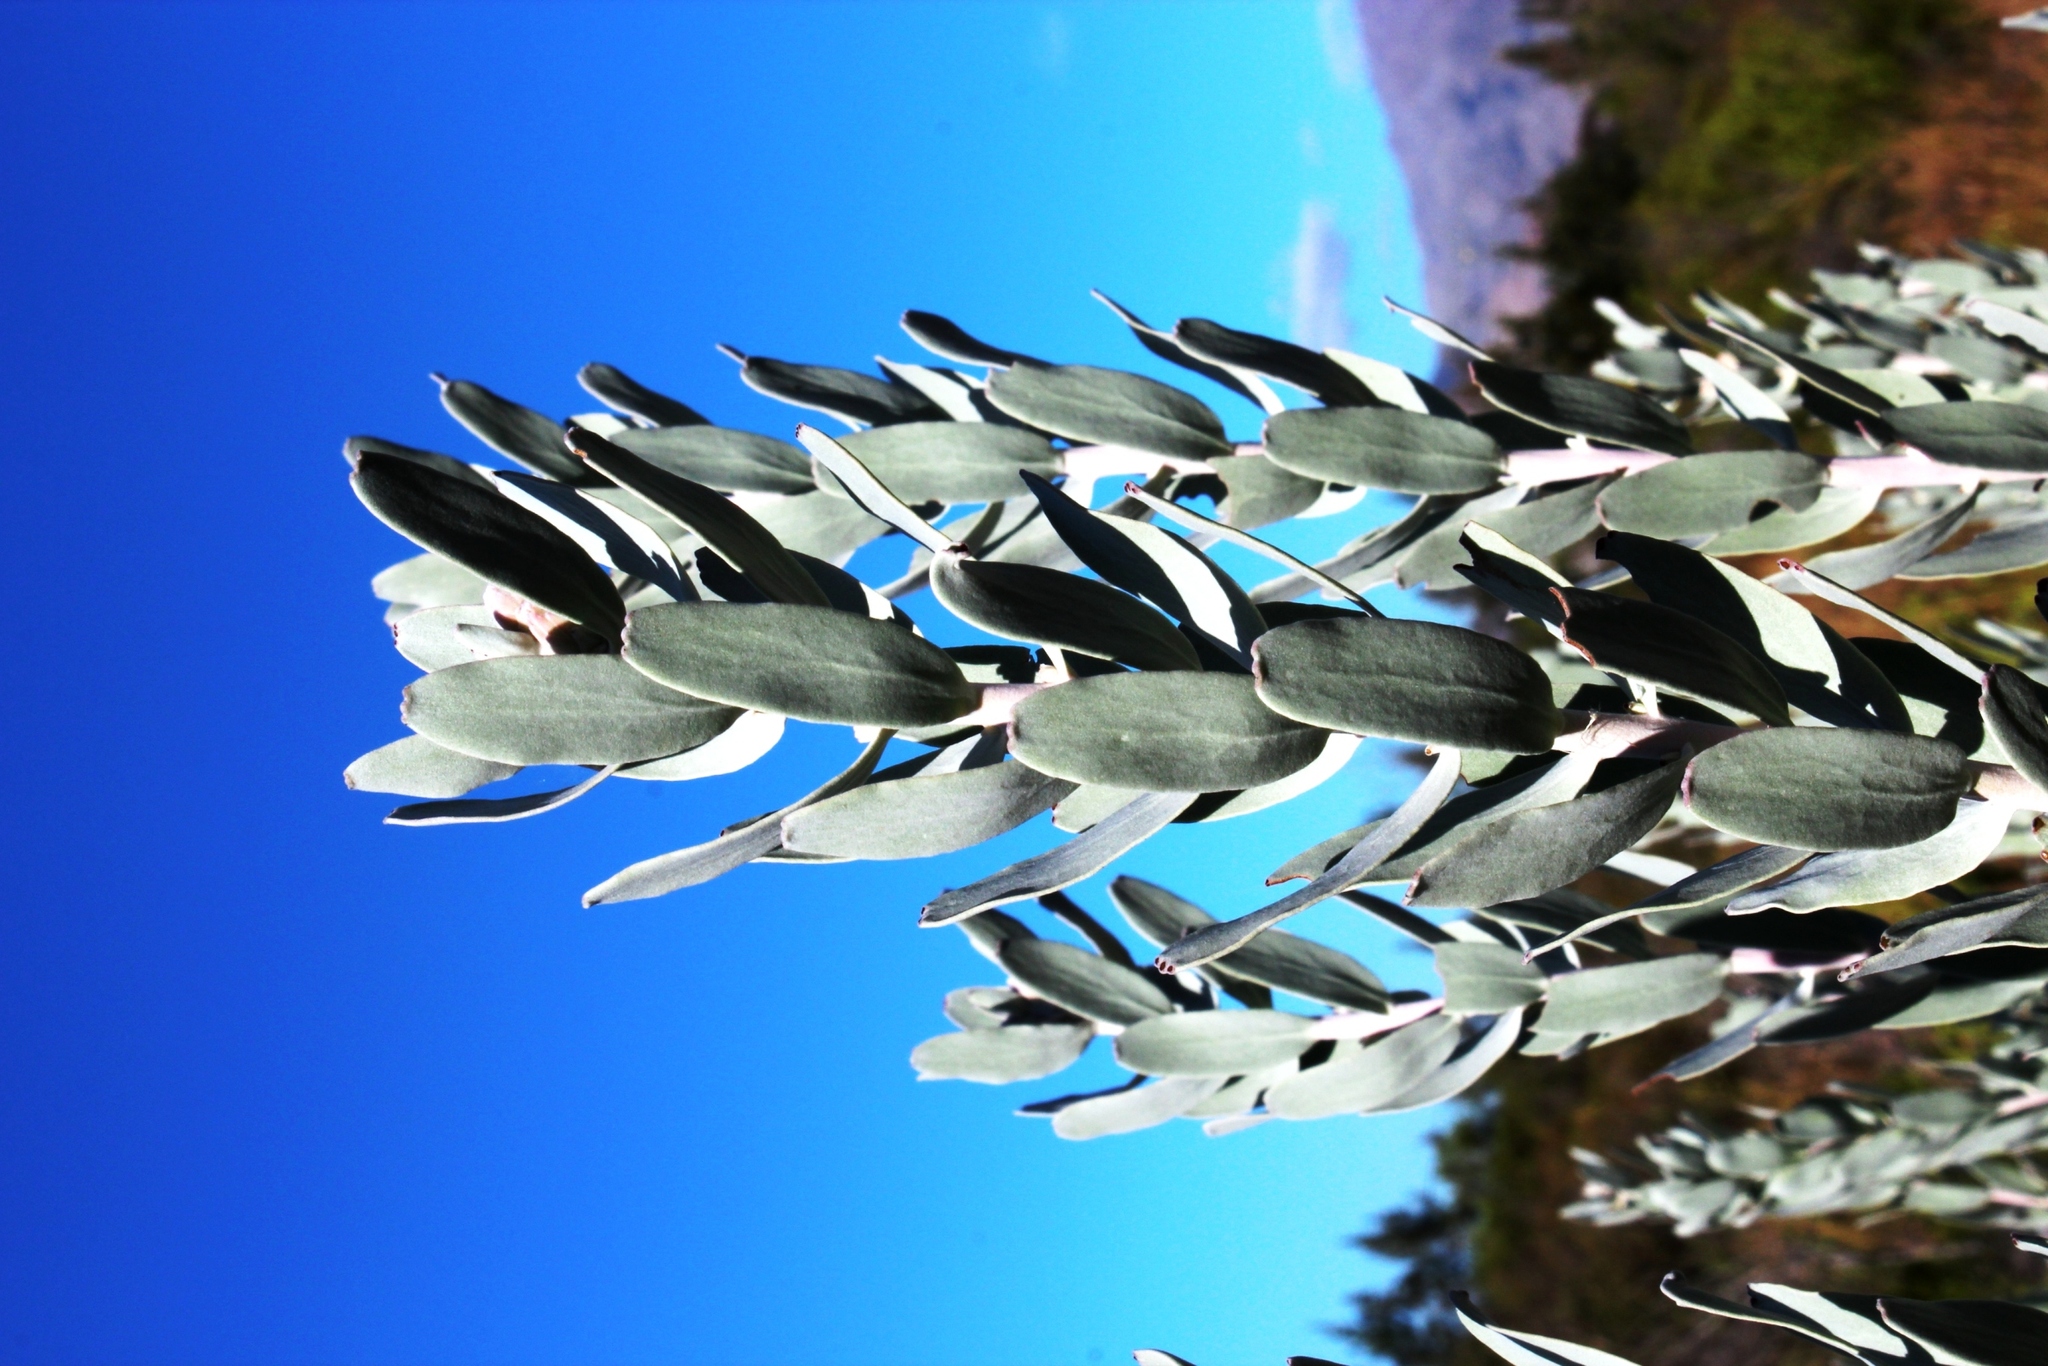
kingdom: Plantae
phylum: Tracheophyta
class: Magnoliopsida
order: Proteales
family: Proteaceae
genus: Leucospermum
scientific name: Leucospermum rodolentum
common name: Pincushion
